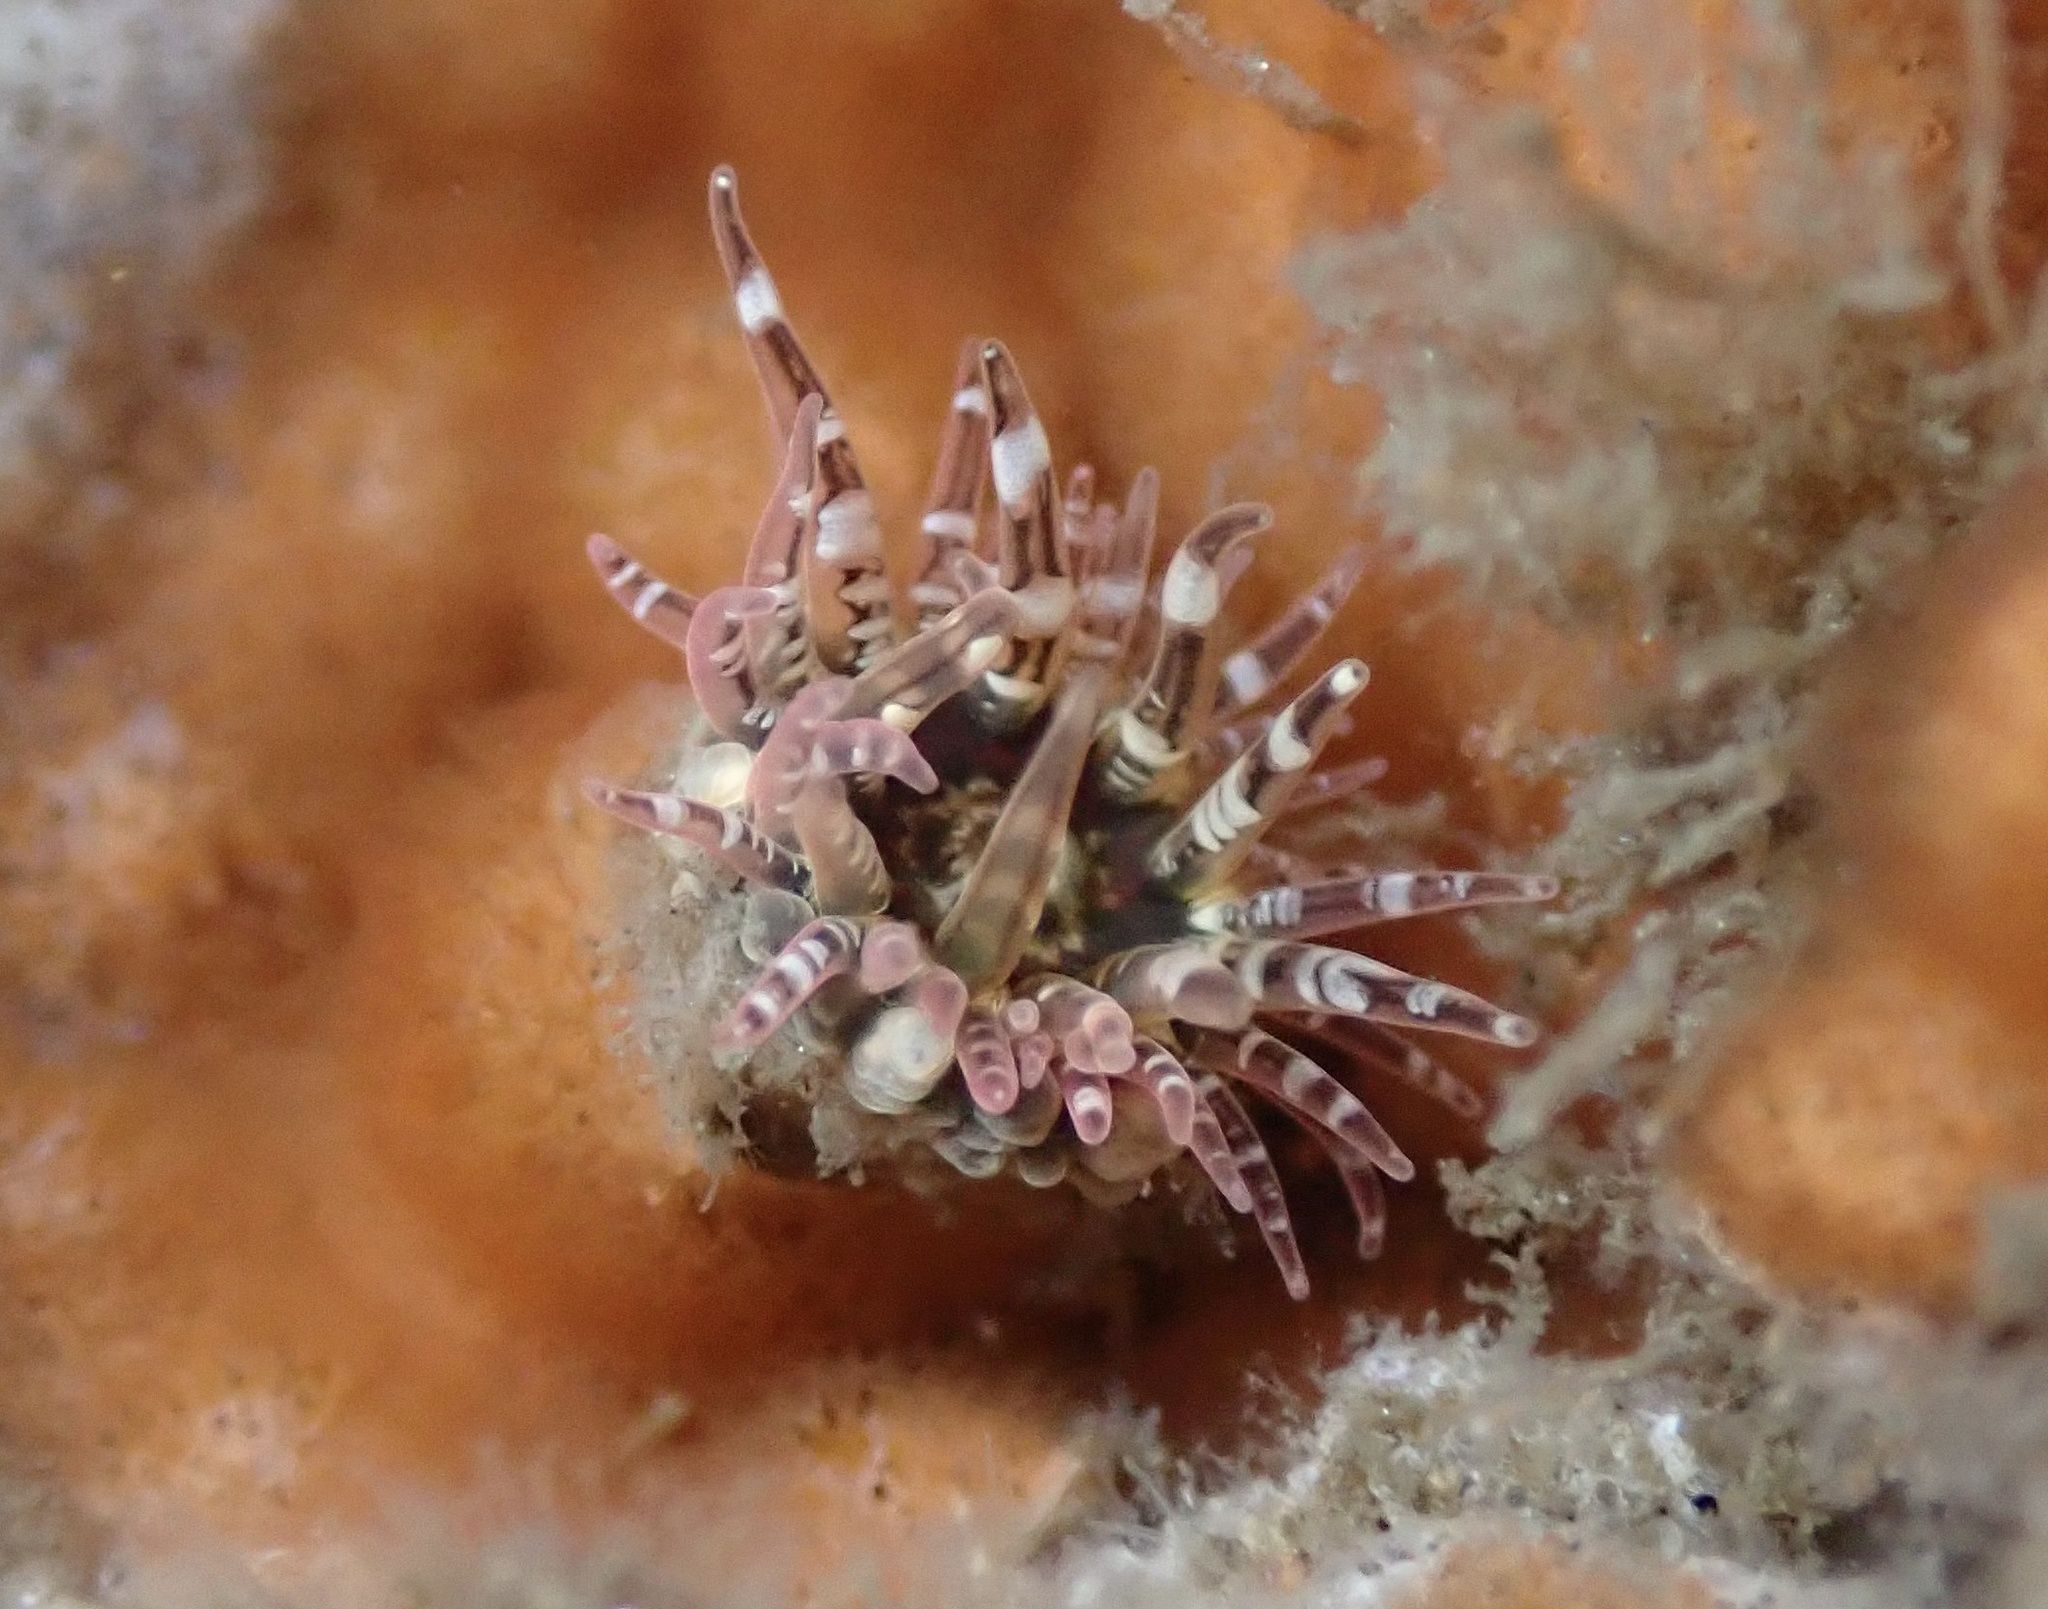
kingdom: Animalia
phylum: Cnidaria
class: Anthozoa
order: Actiniaria
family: Actiniidae
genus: Anthopleura
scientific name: Anthopleura artemisia
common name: Buried sea anemone
